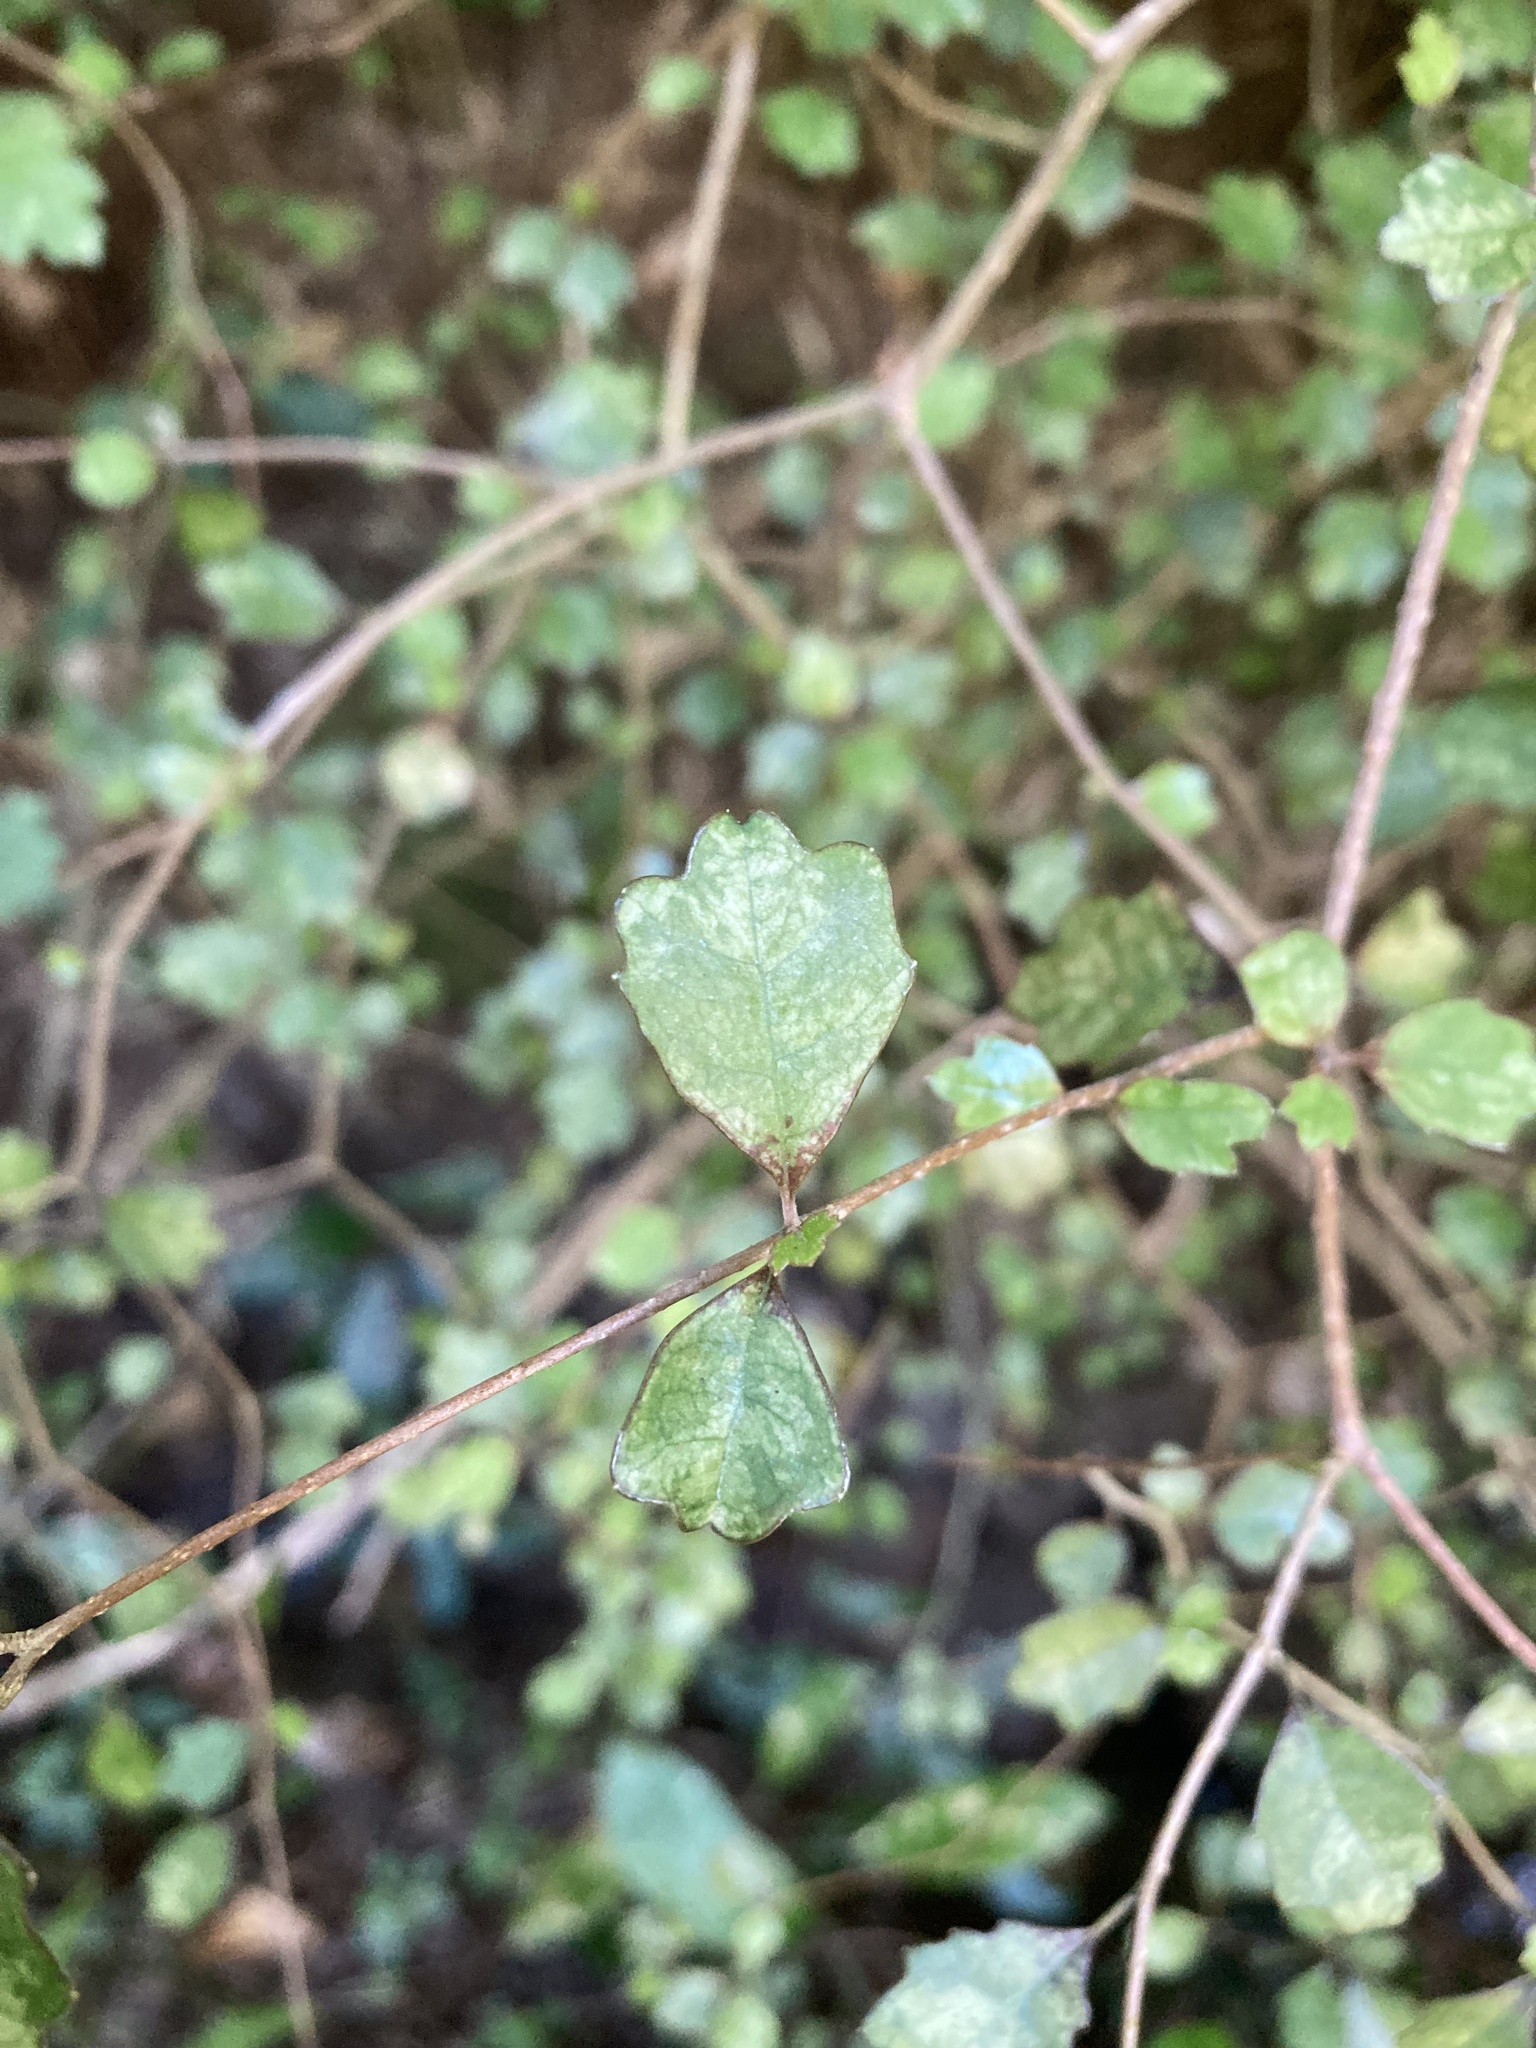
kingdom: Plantae
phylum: Tracheophyta
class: Magnoliopsida
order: Apiales
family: Pennantiaceae
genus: Pennantia
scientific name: Pennantia corymbosa
